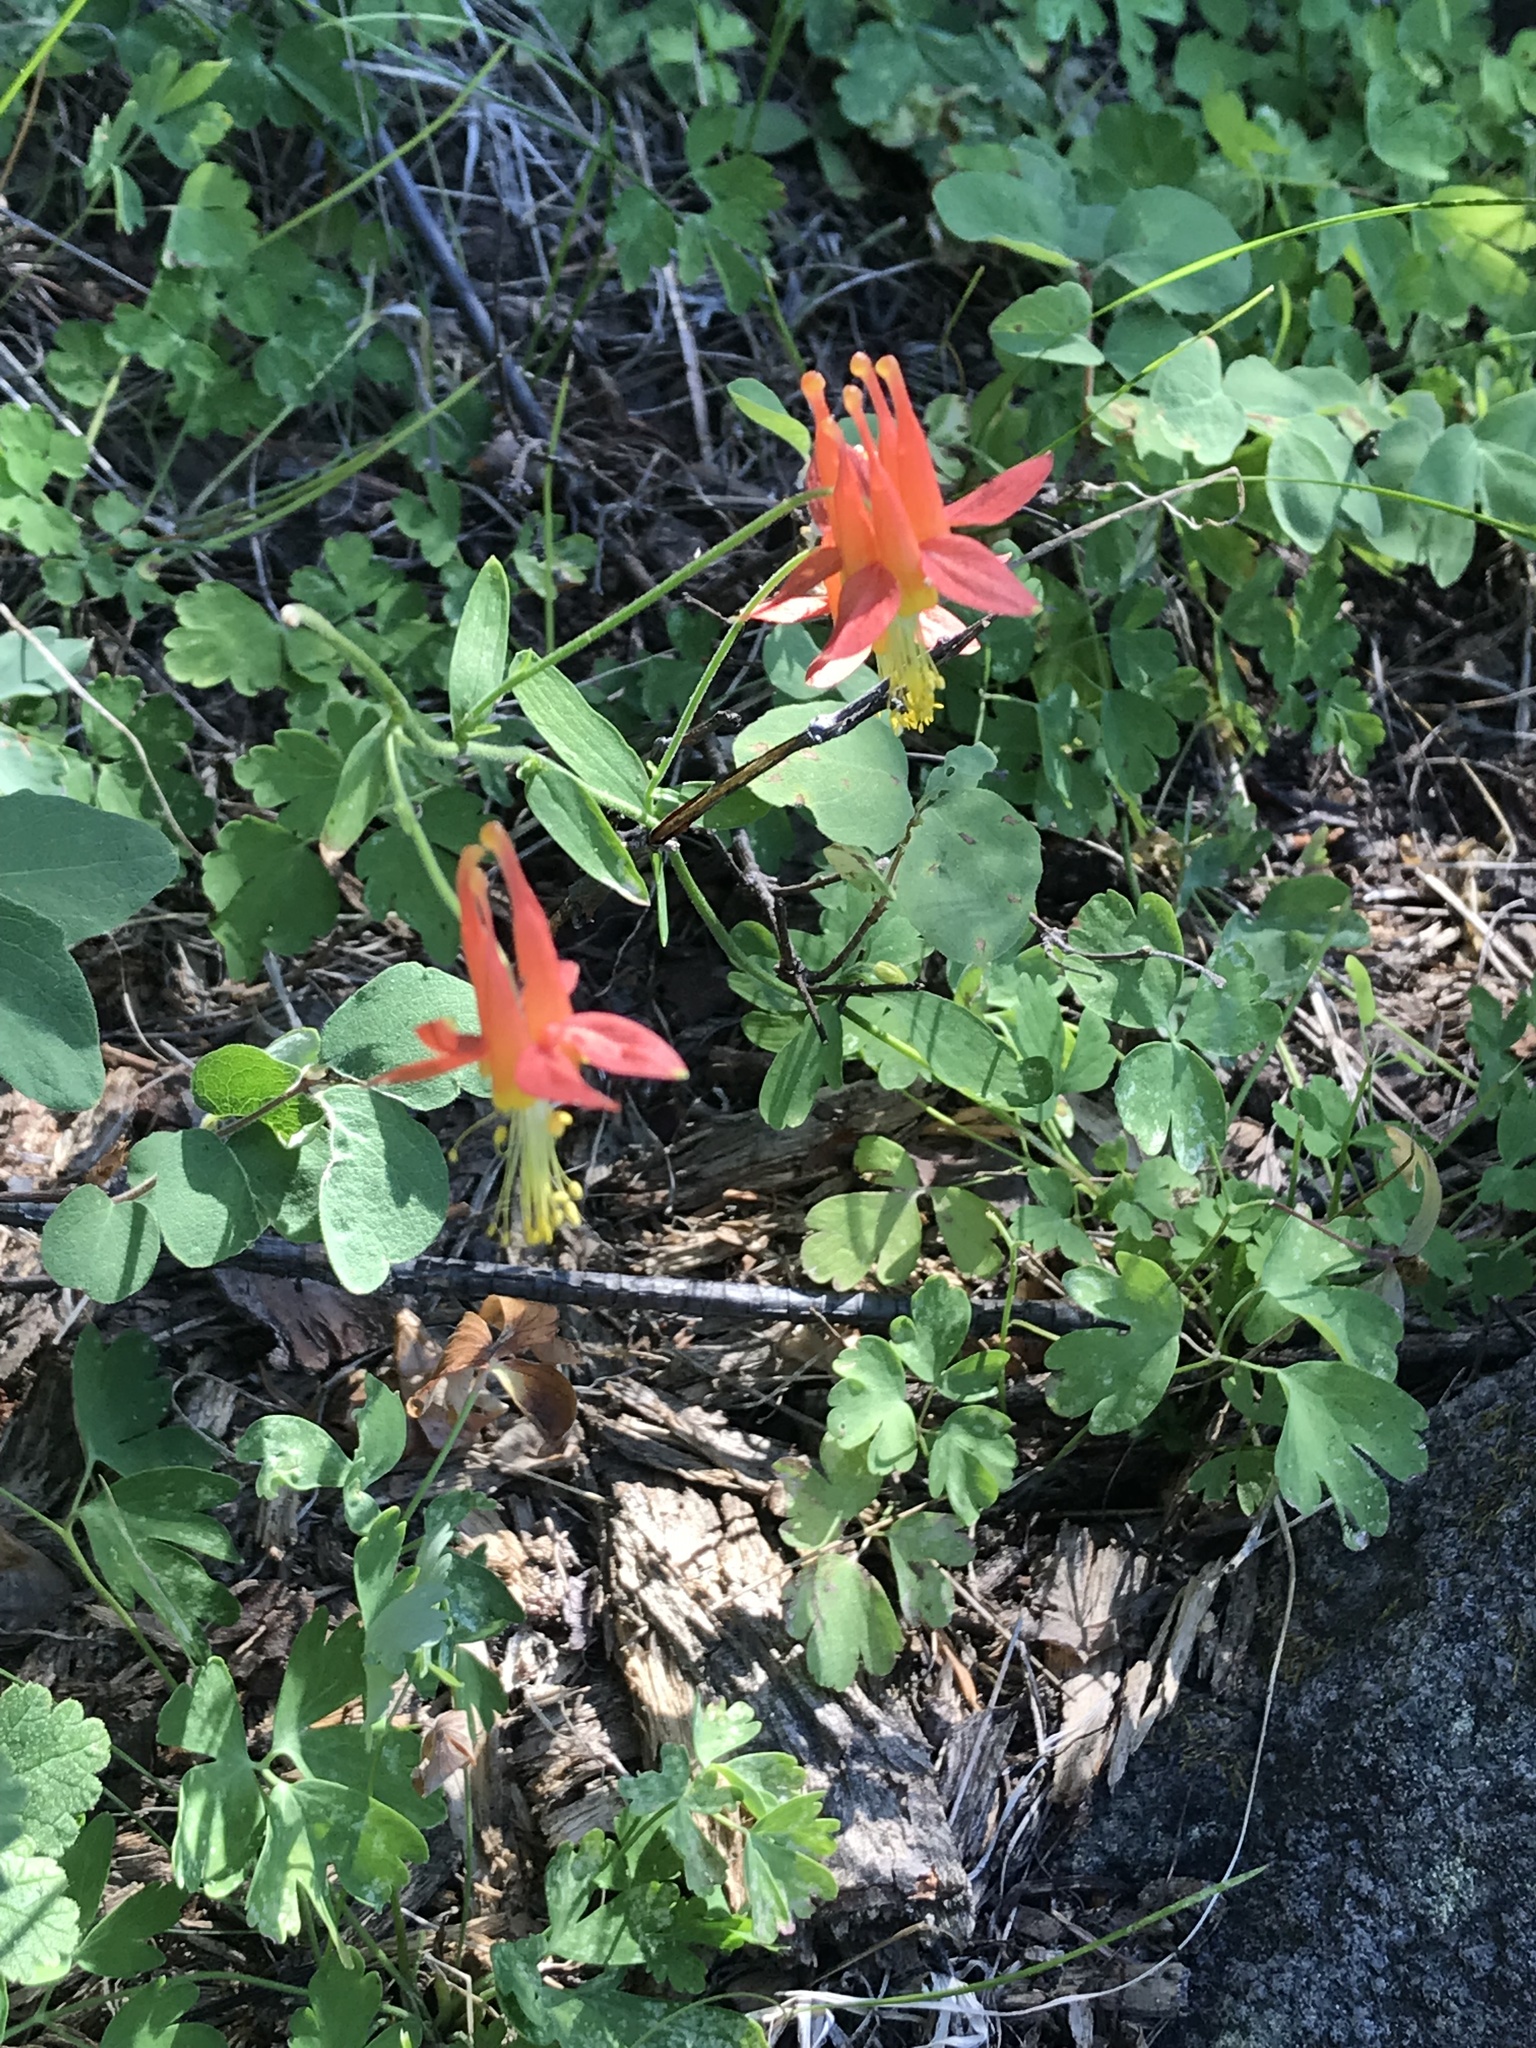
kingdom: Plantae
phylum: Tracheophyta
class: Magnoliopsida
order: Ranunculales
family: Ranunculaceae
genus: Aquilegia
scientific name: Aquilegia formosa
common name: Sitka columbine
